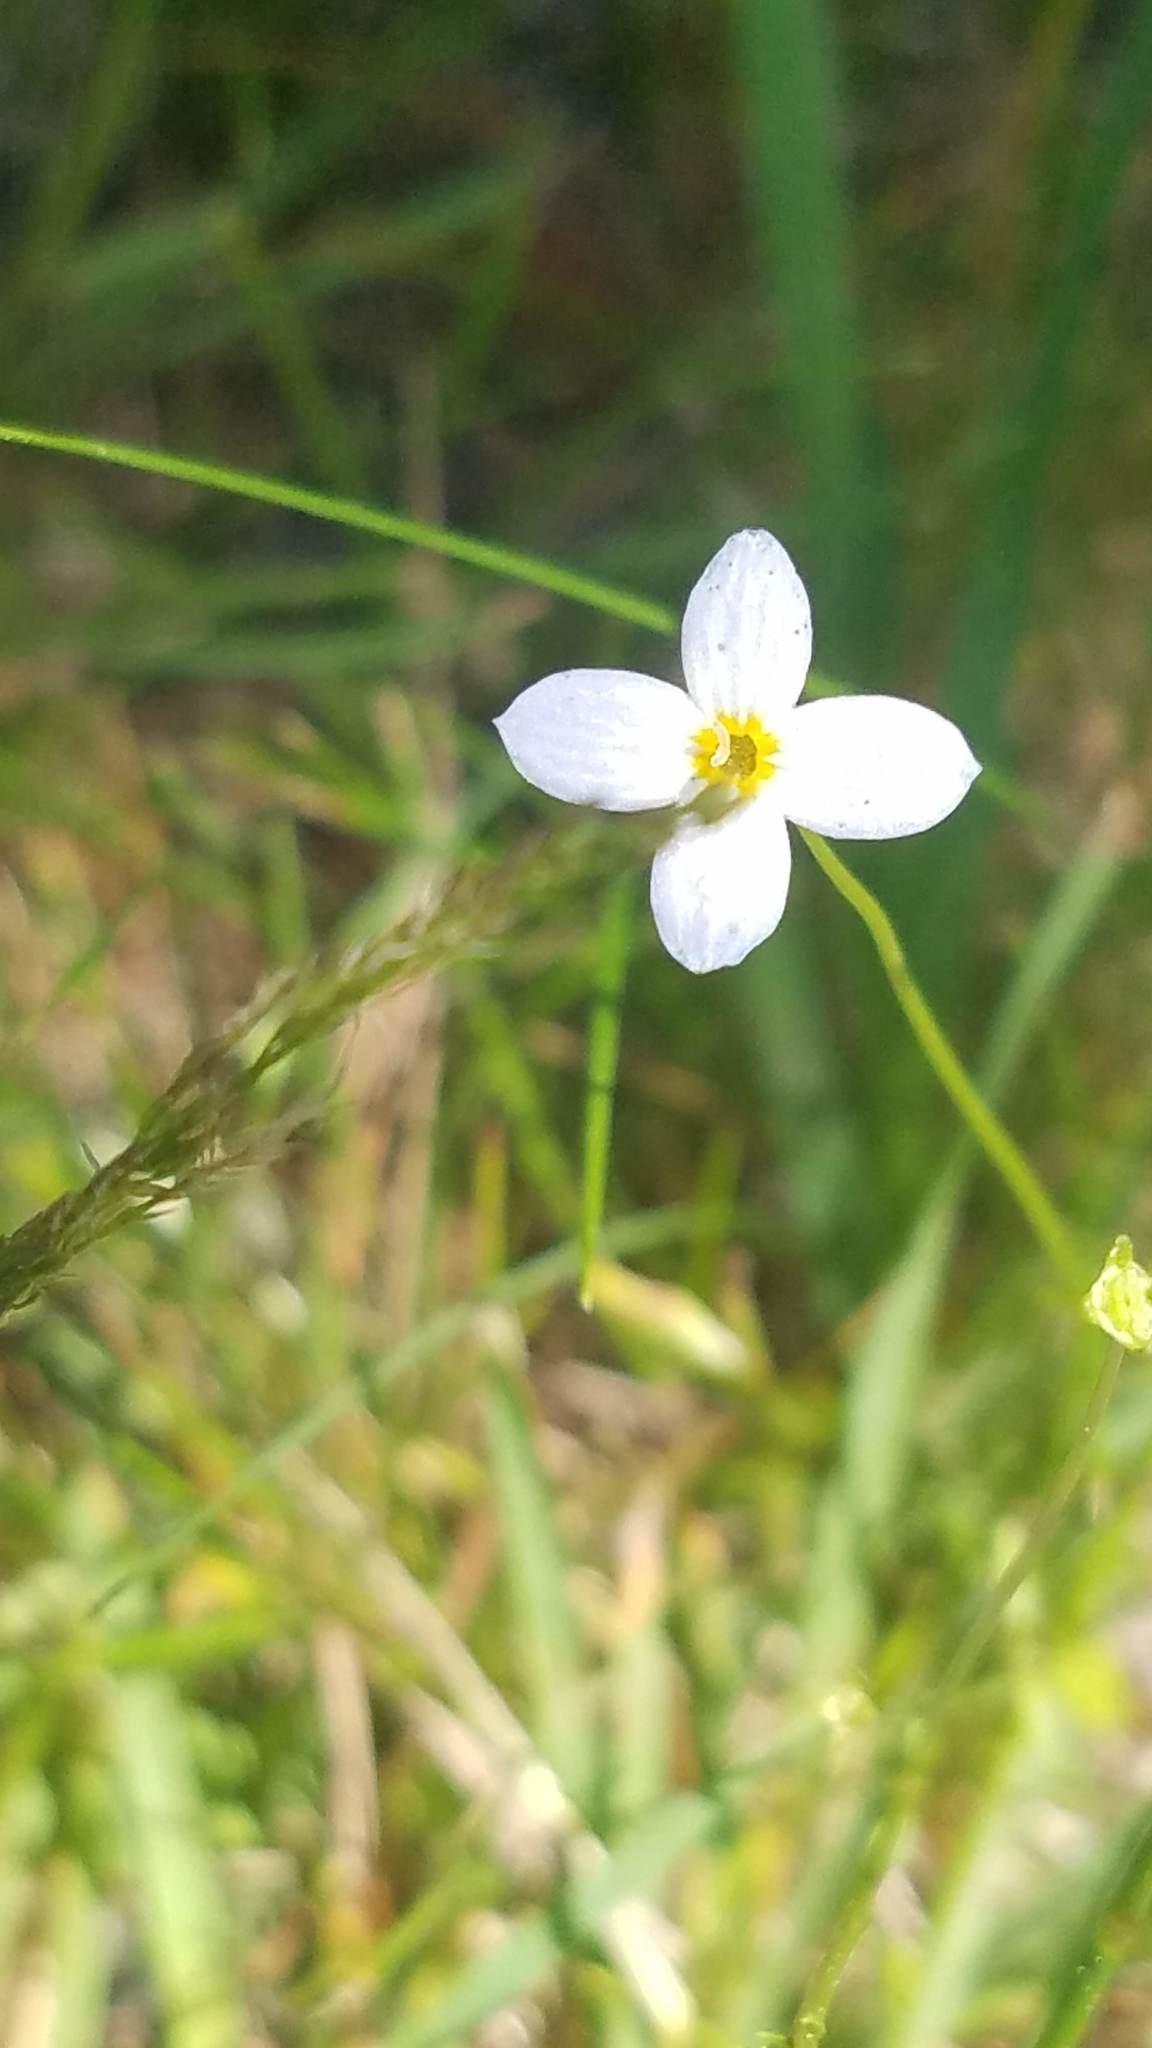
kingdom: Plantae
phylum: Tracheophyta
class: Magnoliopsida
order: Gentianales
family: Rubiaceae
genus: Houstonia
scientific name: Houstonia caerulea
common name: Bluets
